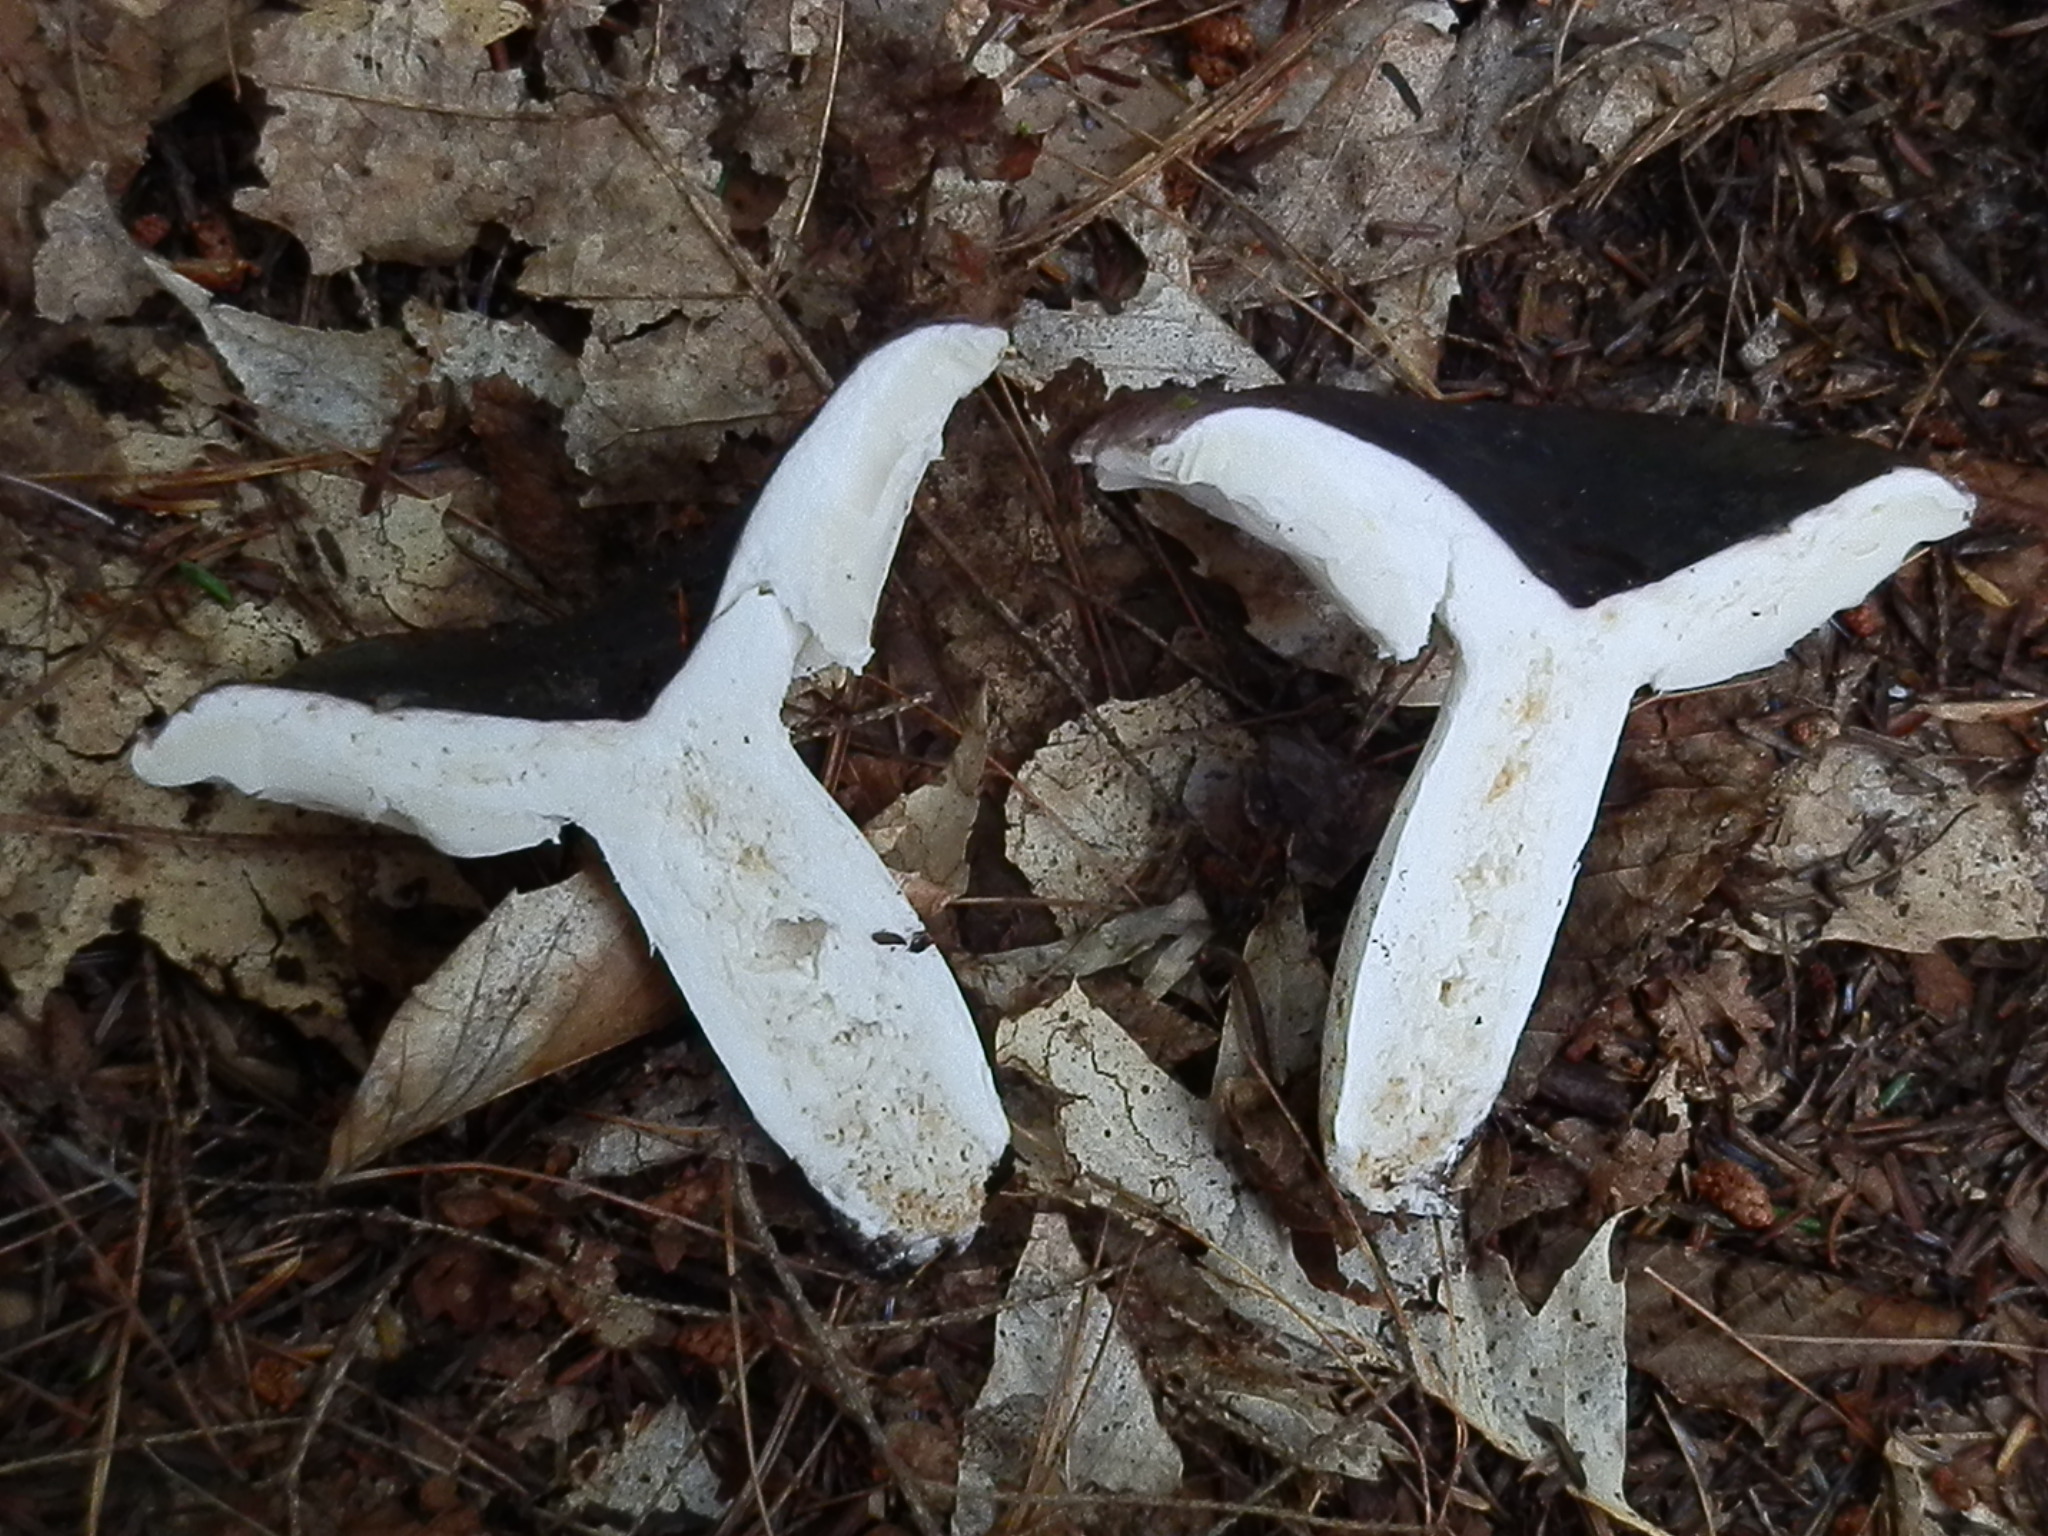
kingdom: Fungi
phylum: Basidiomycota
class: Agaricomycetes
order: Russulales
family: Russulaceae
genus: Russula
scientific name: Russula cyanoxantha
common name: Charcoal burner
